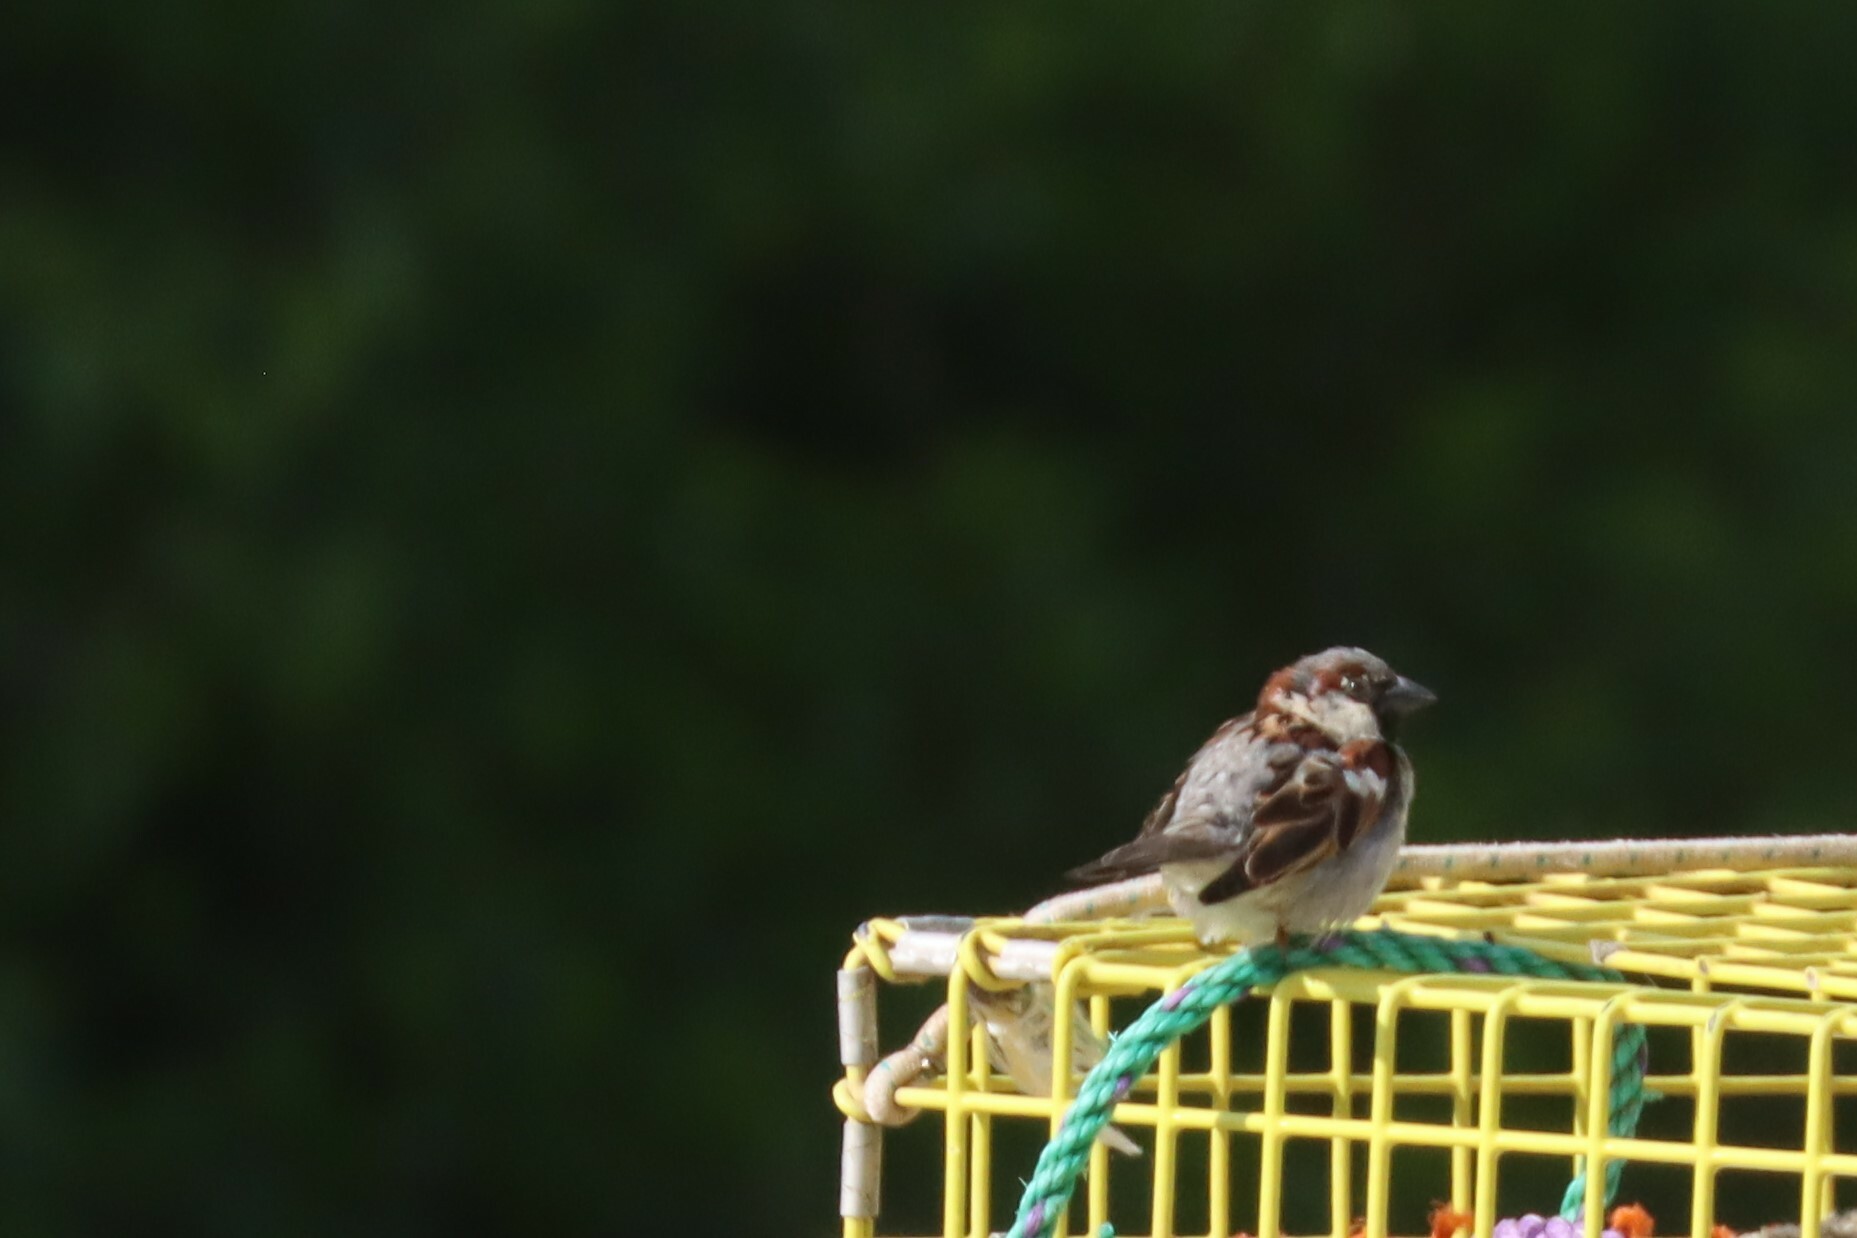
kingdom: Animalia
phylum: Chordata
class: Aves
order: Passeriformes
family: Passeridae
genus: Passer
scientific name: Passer domesticus
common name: House sparrow
